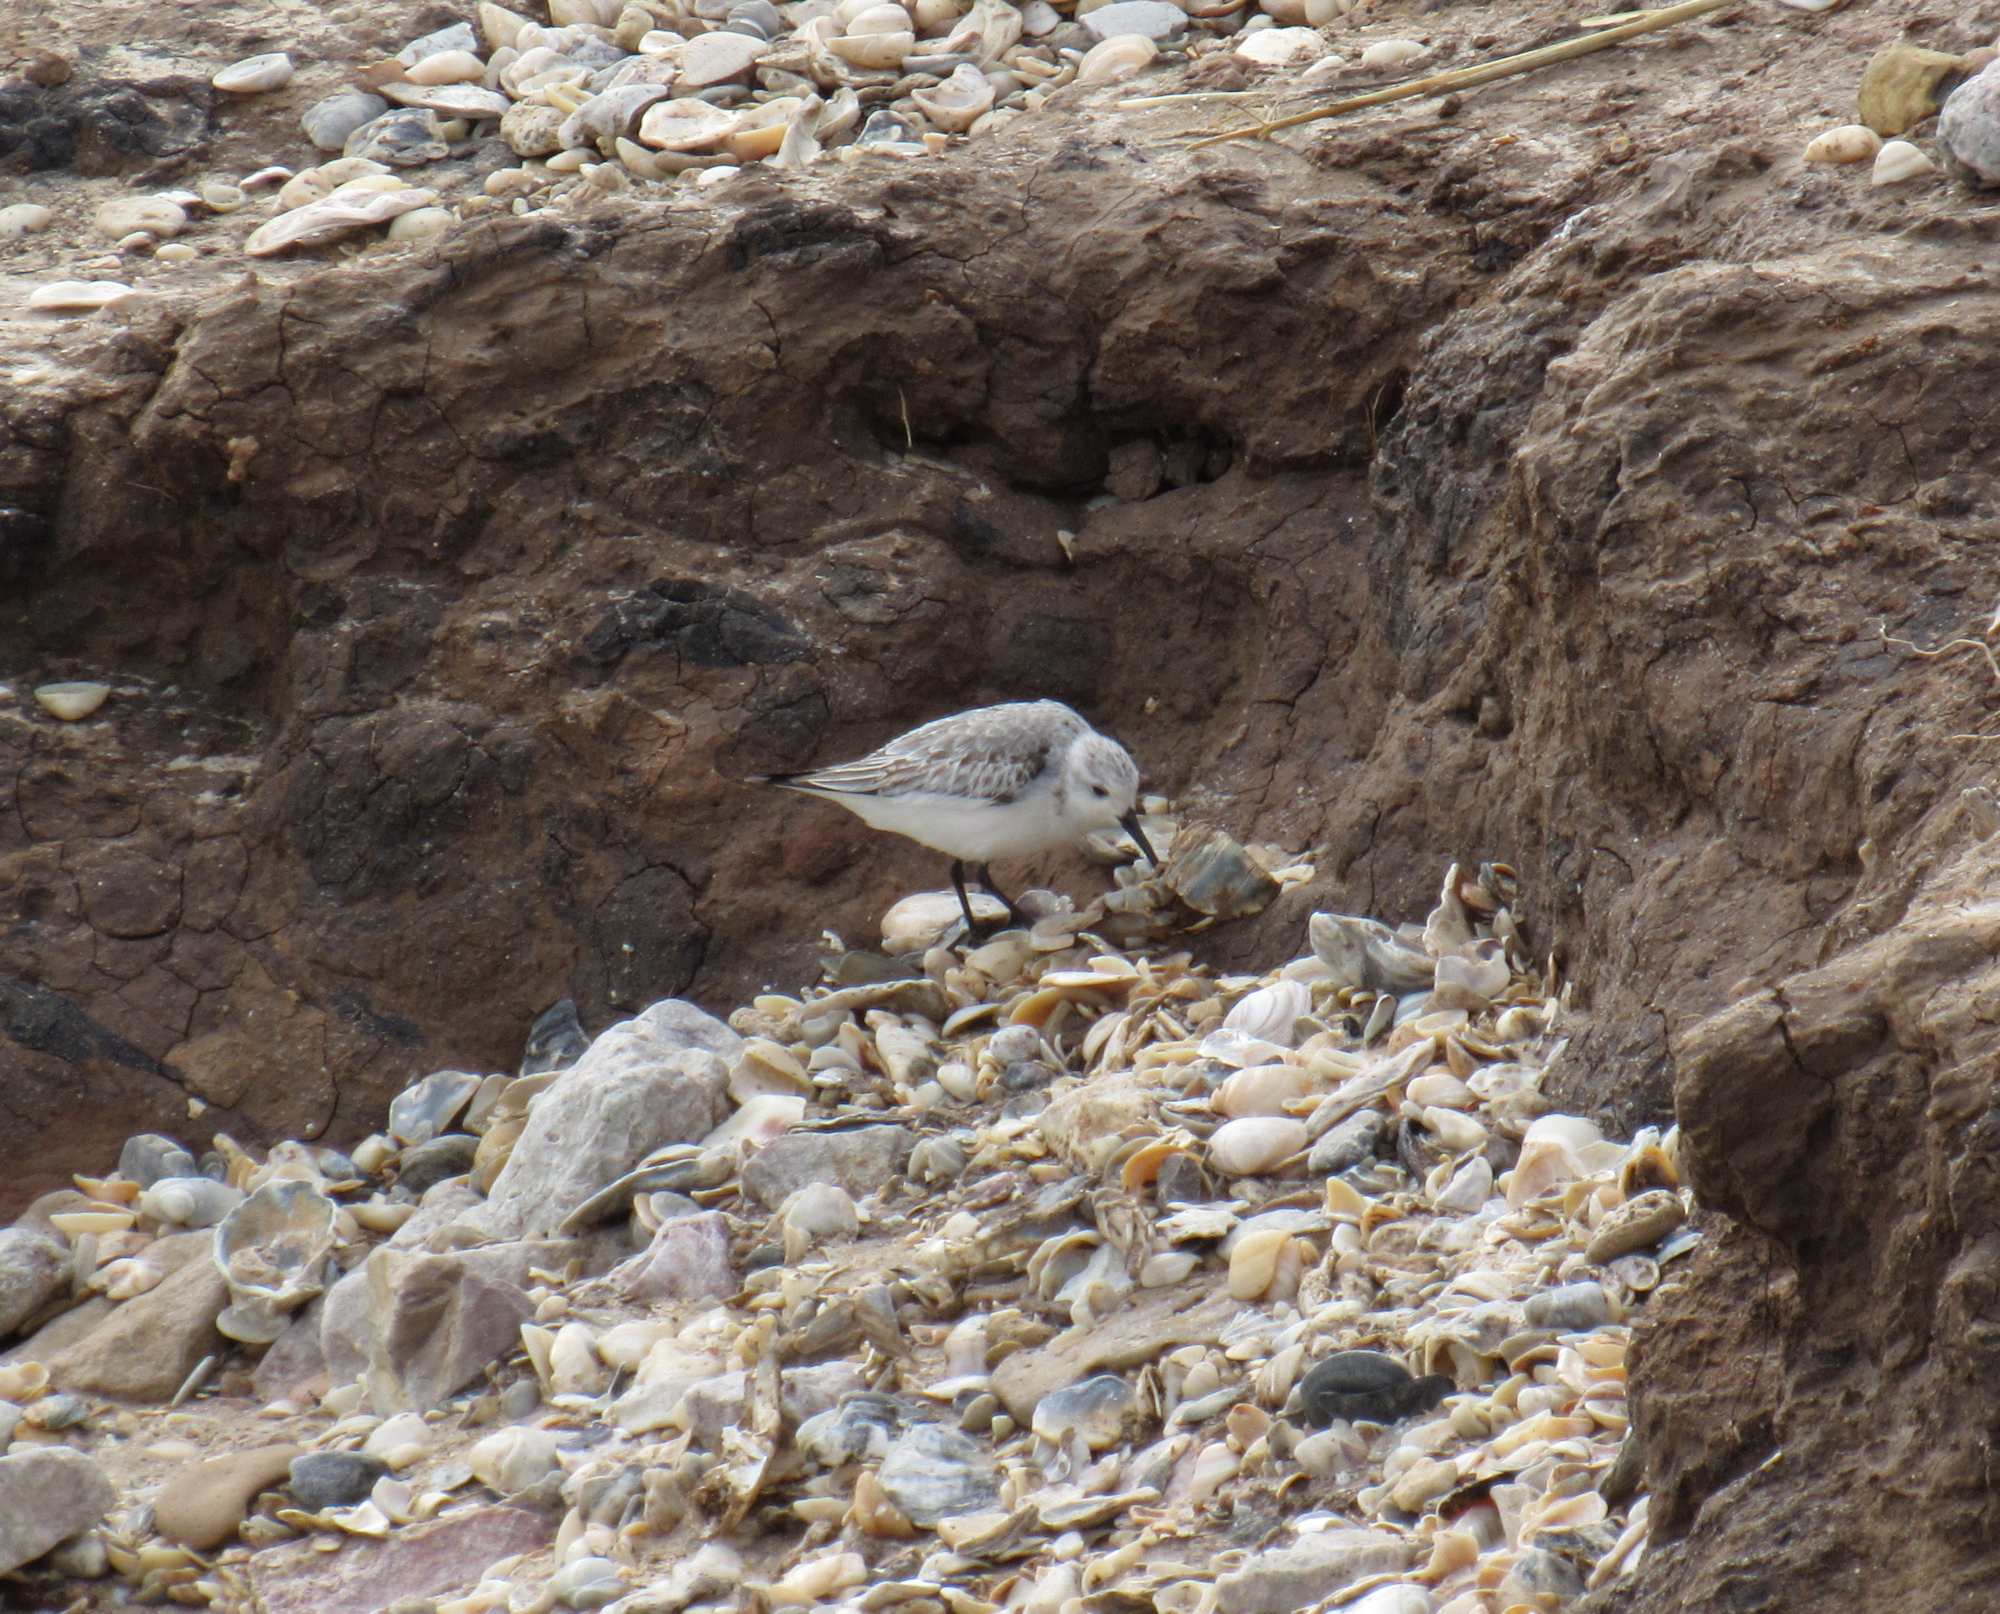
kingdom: Animalia
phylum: Chordata
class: Aves
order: Charadriiformes
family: Scolopacidae
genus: Calidris
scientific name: Calidris alba
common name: Sanderling
